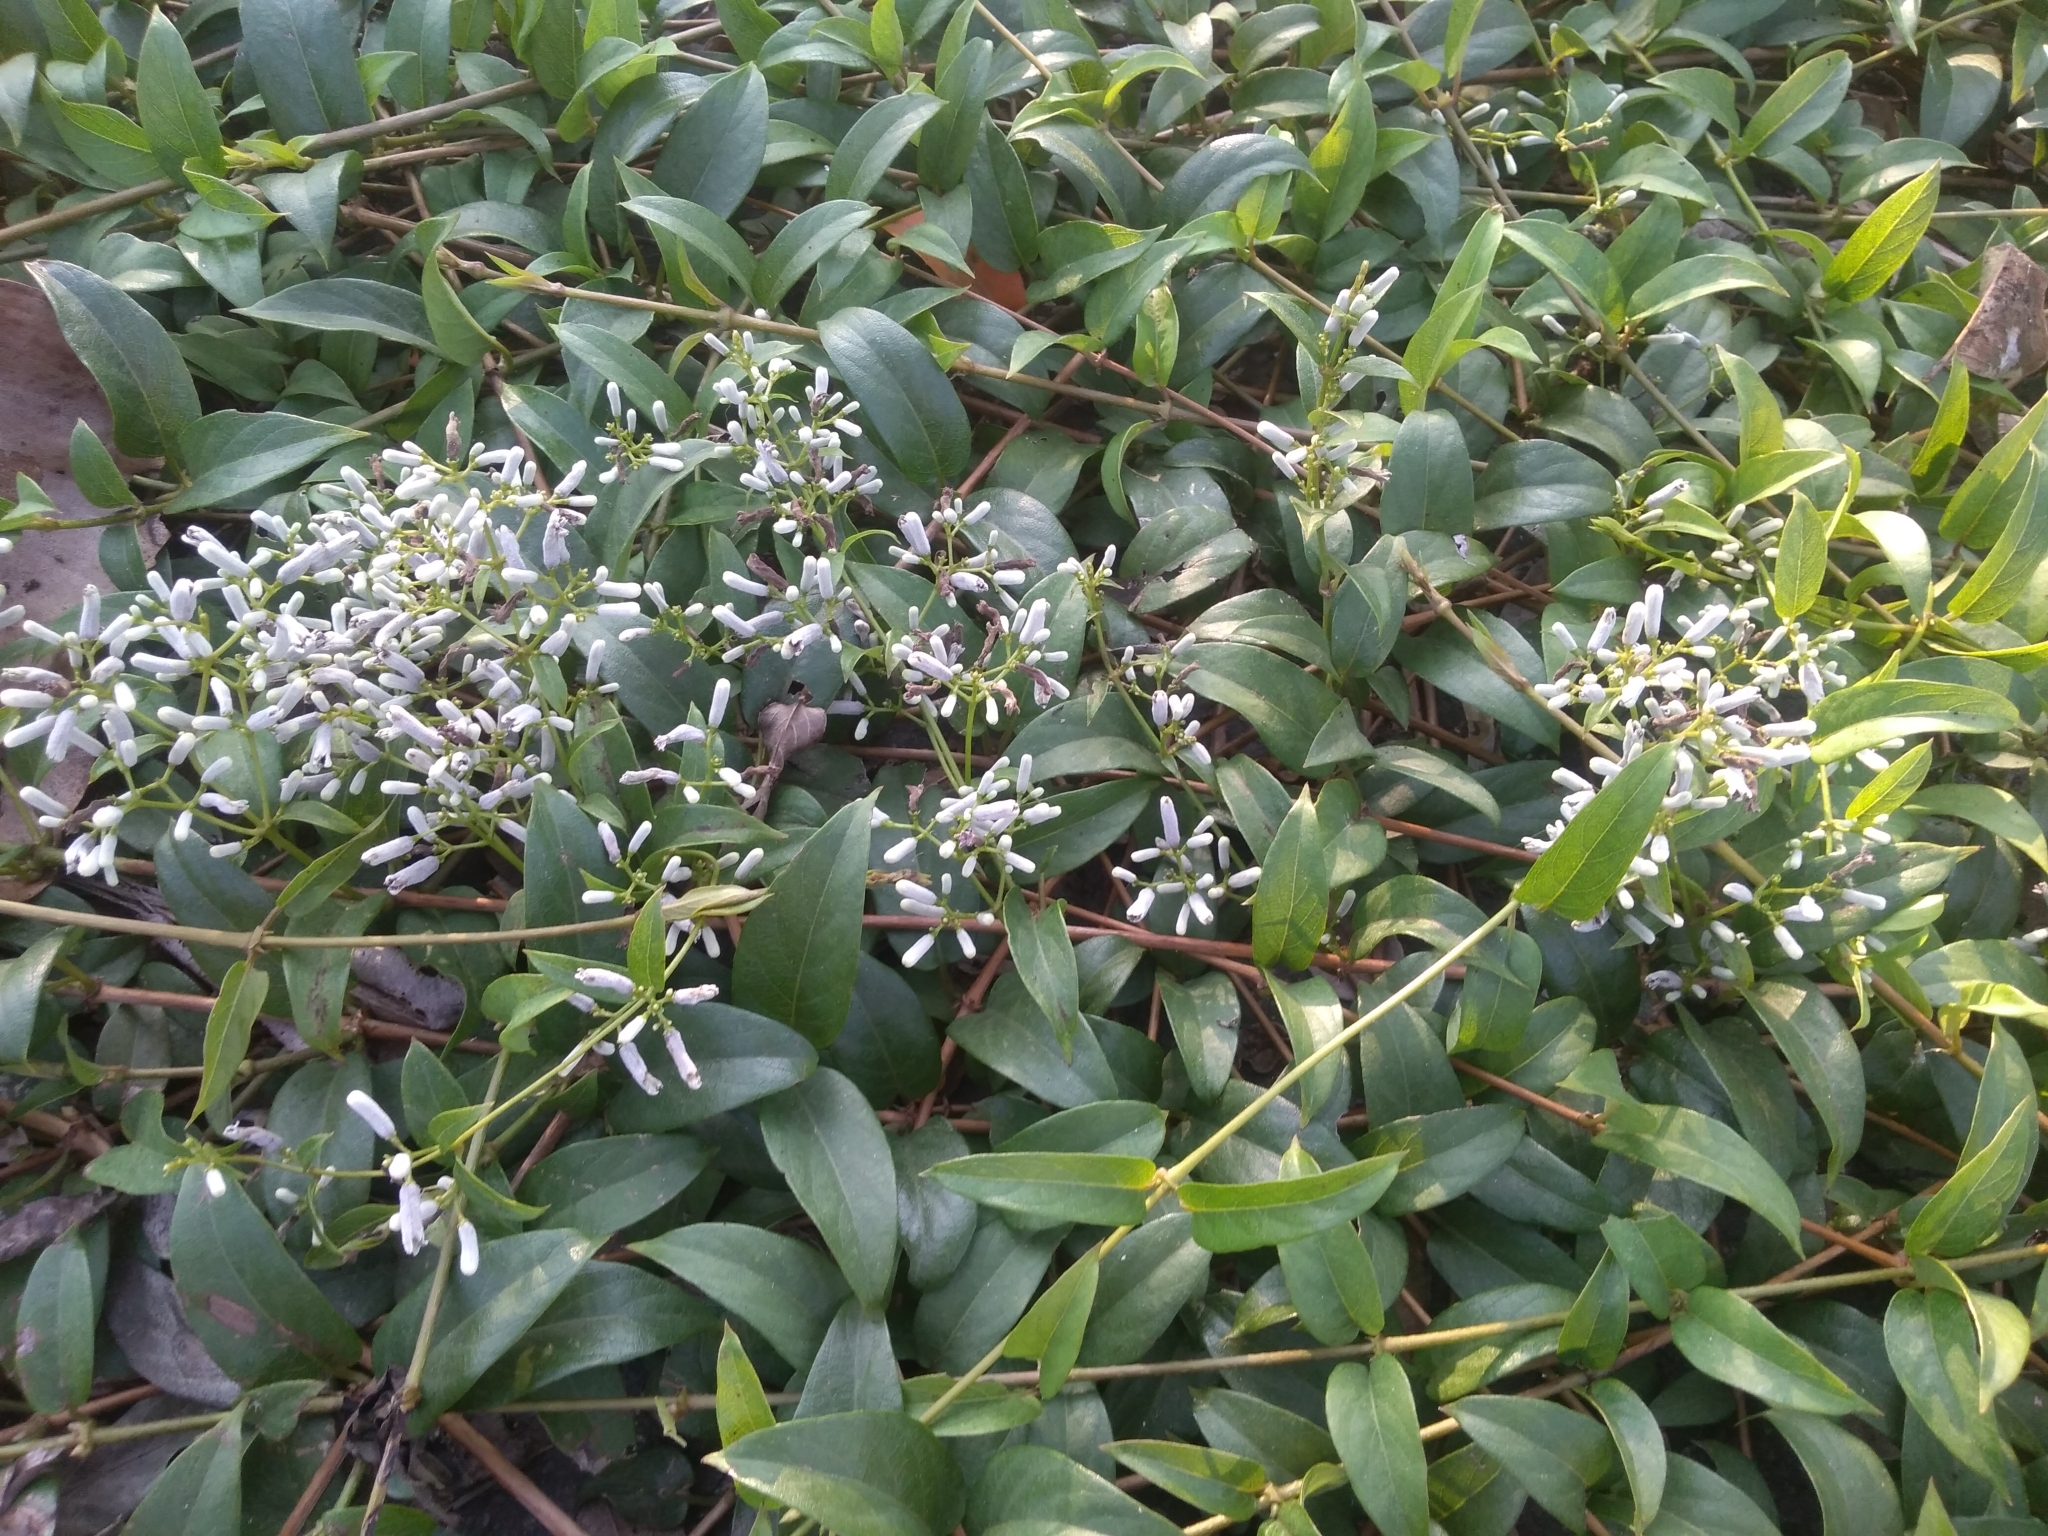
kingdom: Plantae
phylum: Tracheophyta
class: Magnoliopsida
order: Gentianales
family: Rubiaceae
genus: Paederia
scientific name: Paederia foetida
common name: Stinkvine
